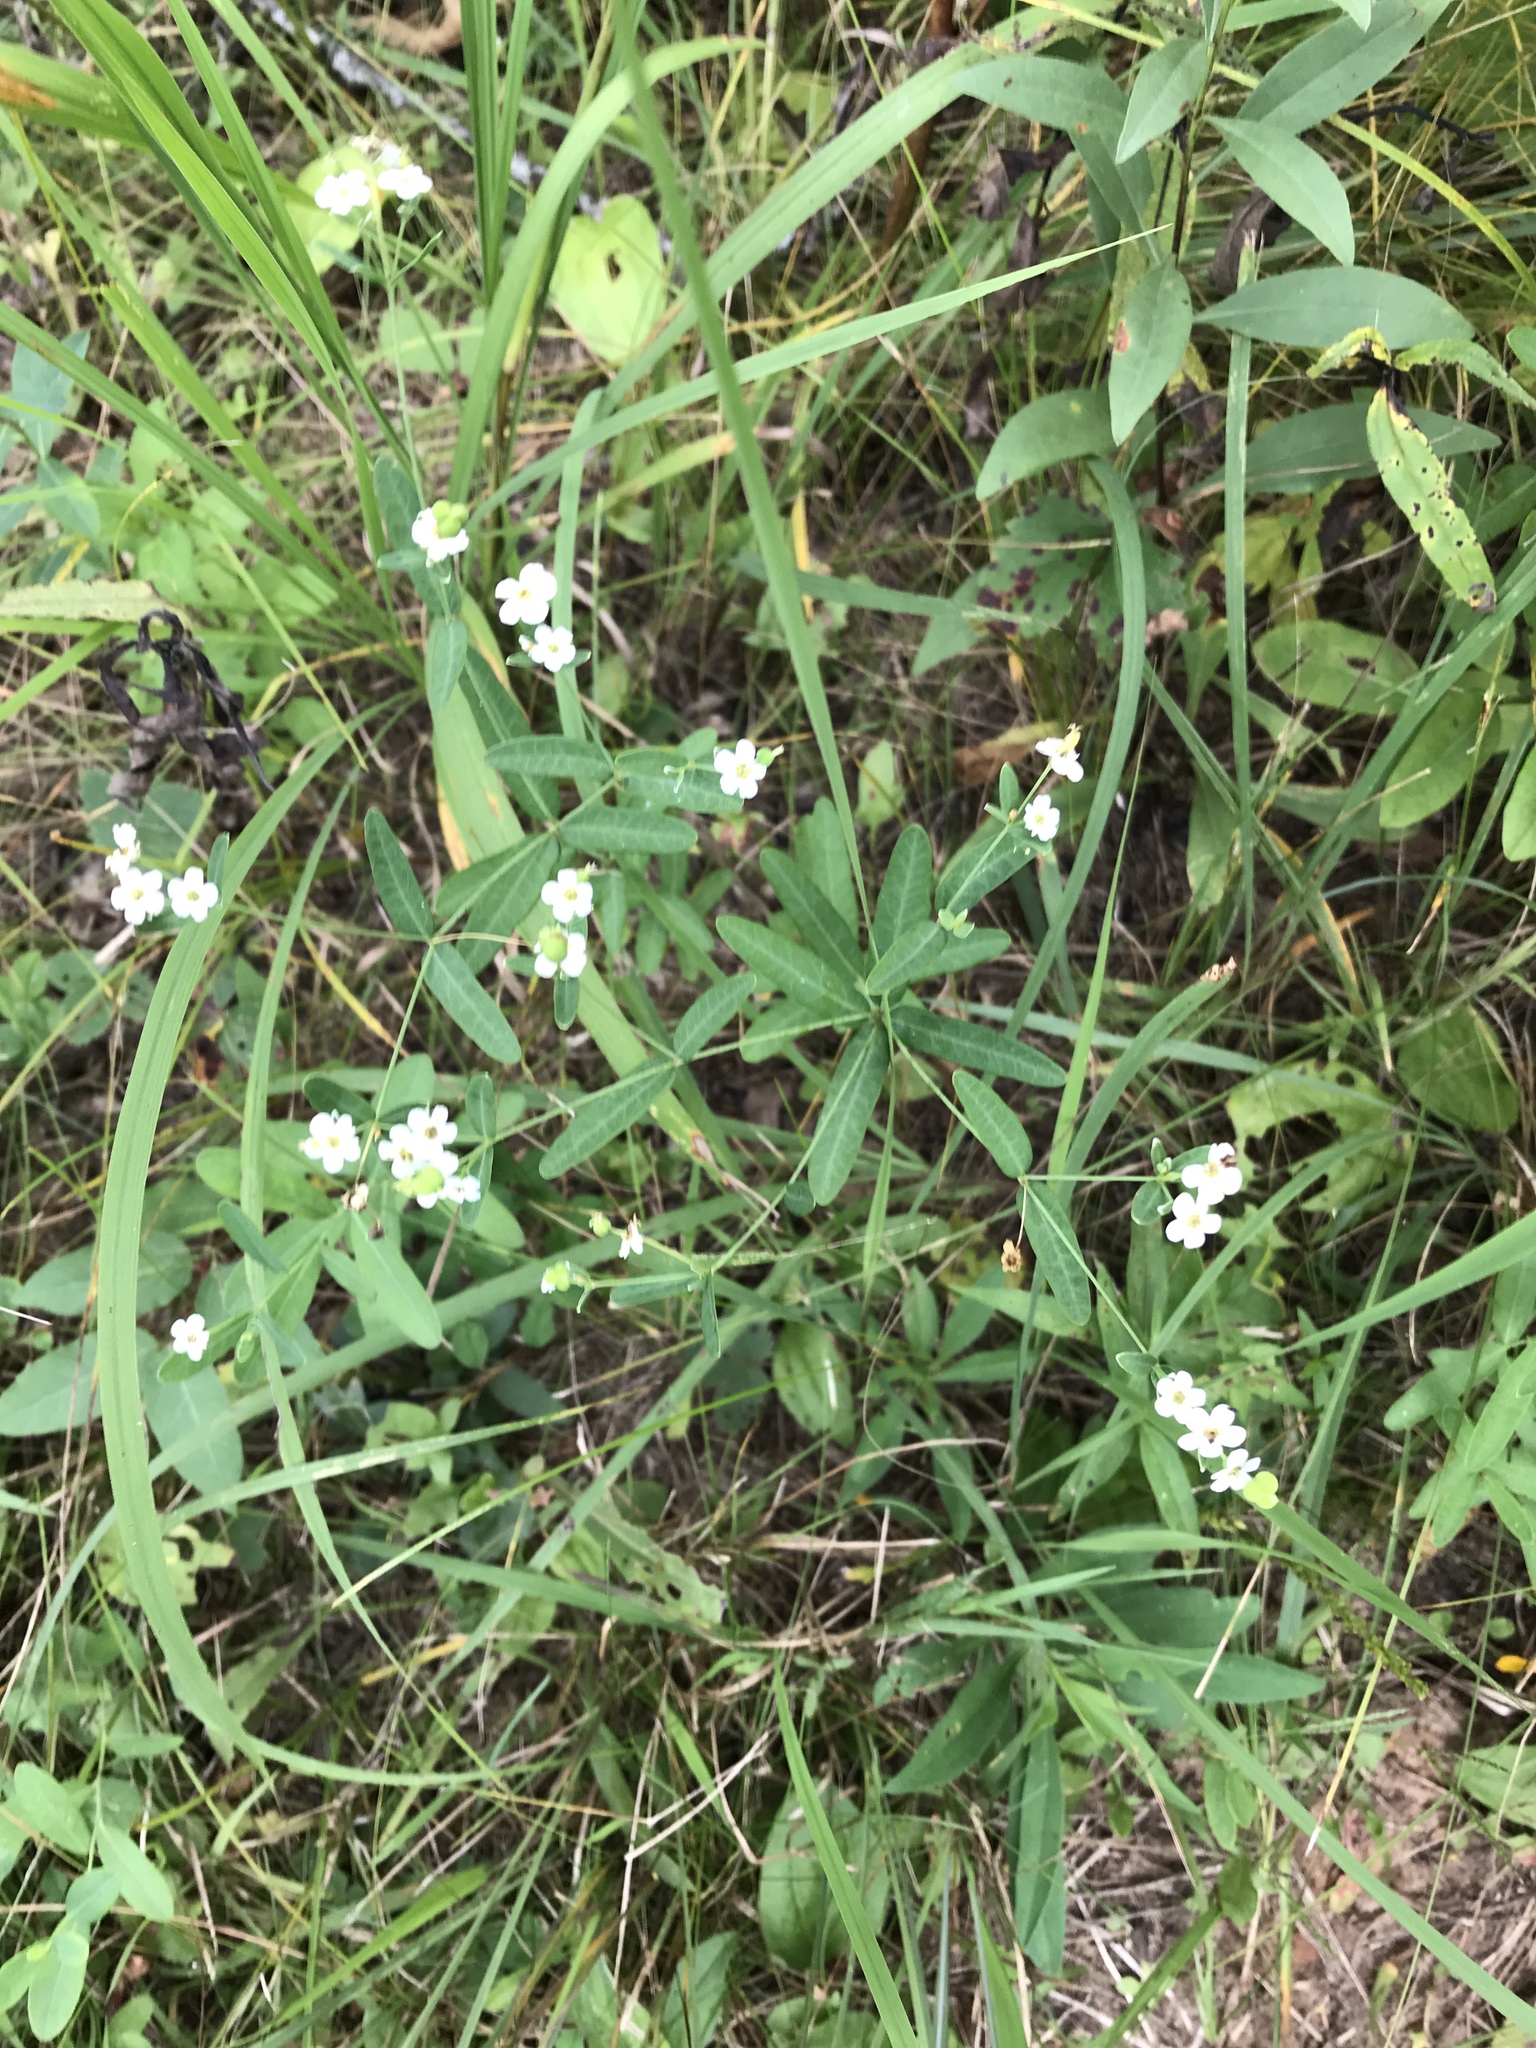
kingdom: Plantae
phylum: Tracheophyta
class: Magnoliopsida
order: Malpighiales
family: Euphorbiaceae
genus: Euphorbia
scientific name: Euphorbia corollata
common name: Flowering spurge
